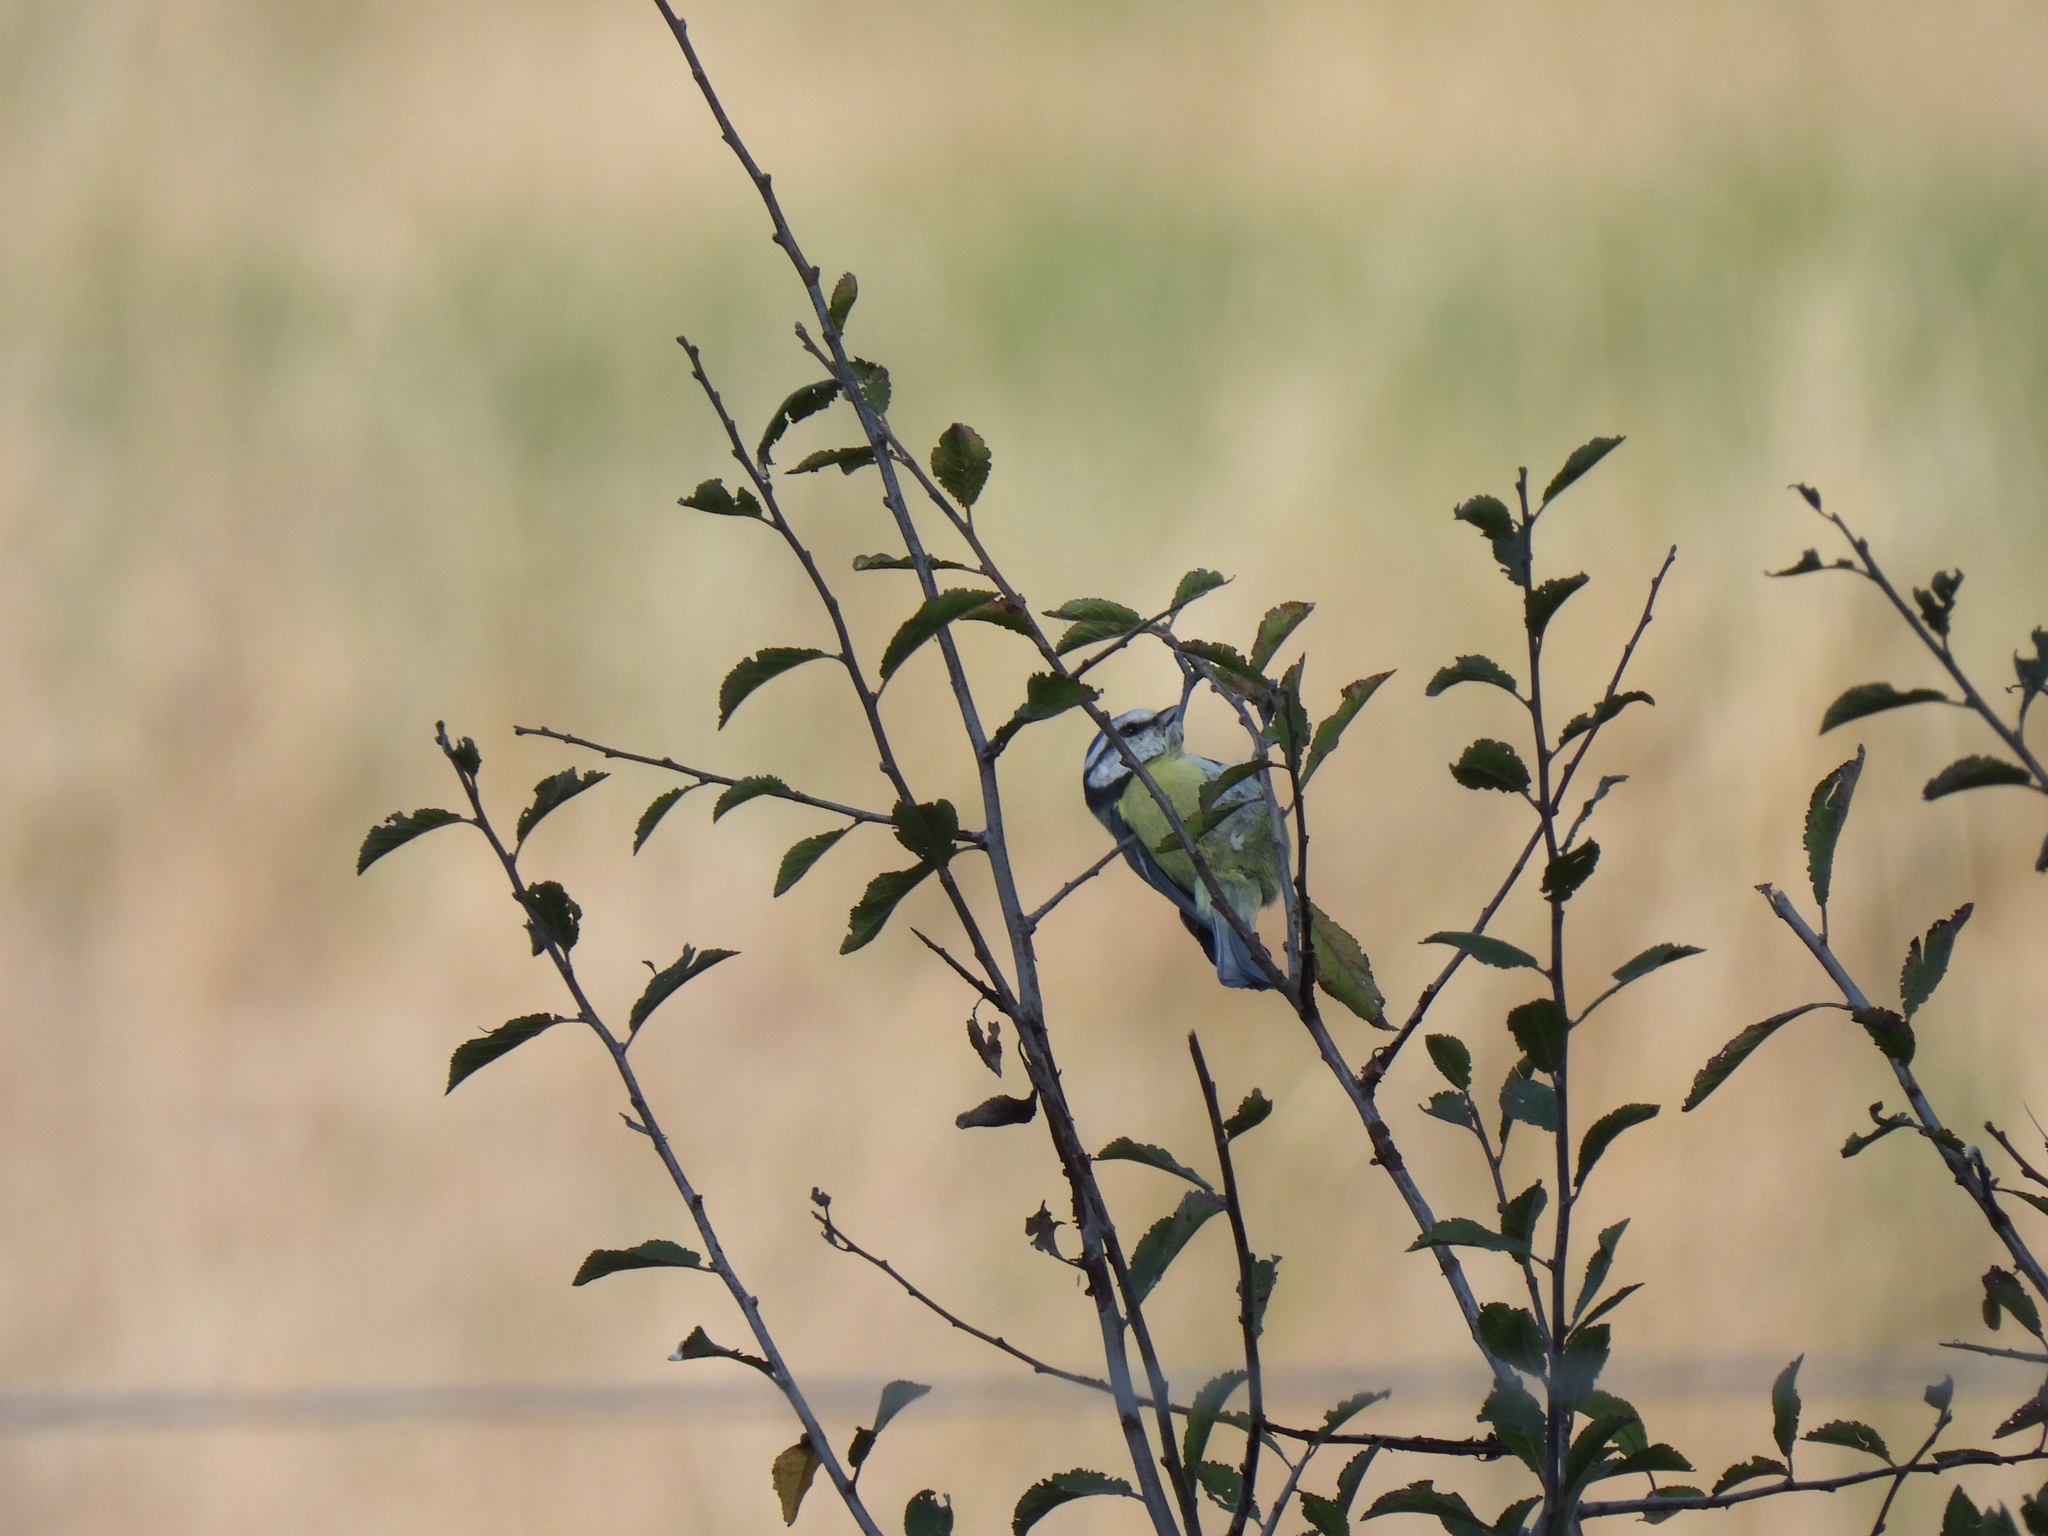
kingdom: Animalia
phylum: Chordata
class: Aves
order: Passeriformes
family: Paridae
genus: Cyanistes
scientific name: Cyanistes caeruleus
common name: Eurasian blue tit
